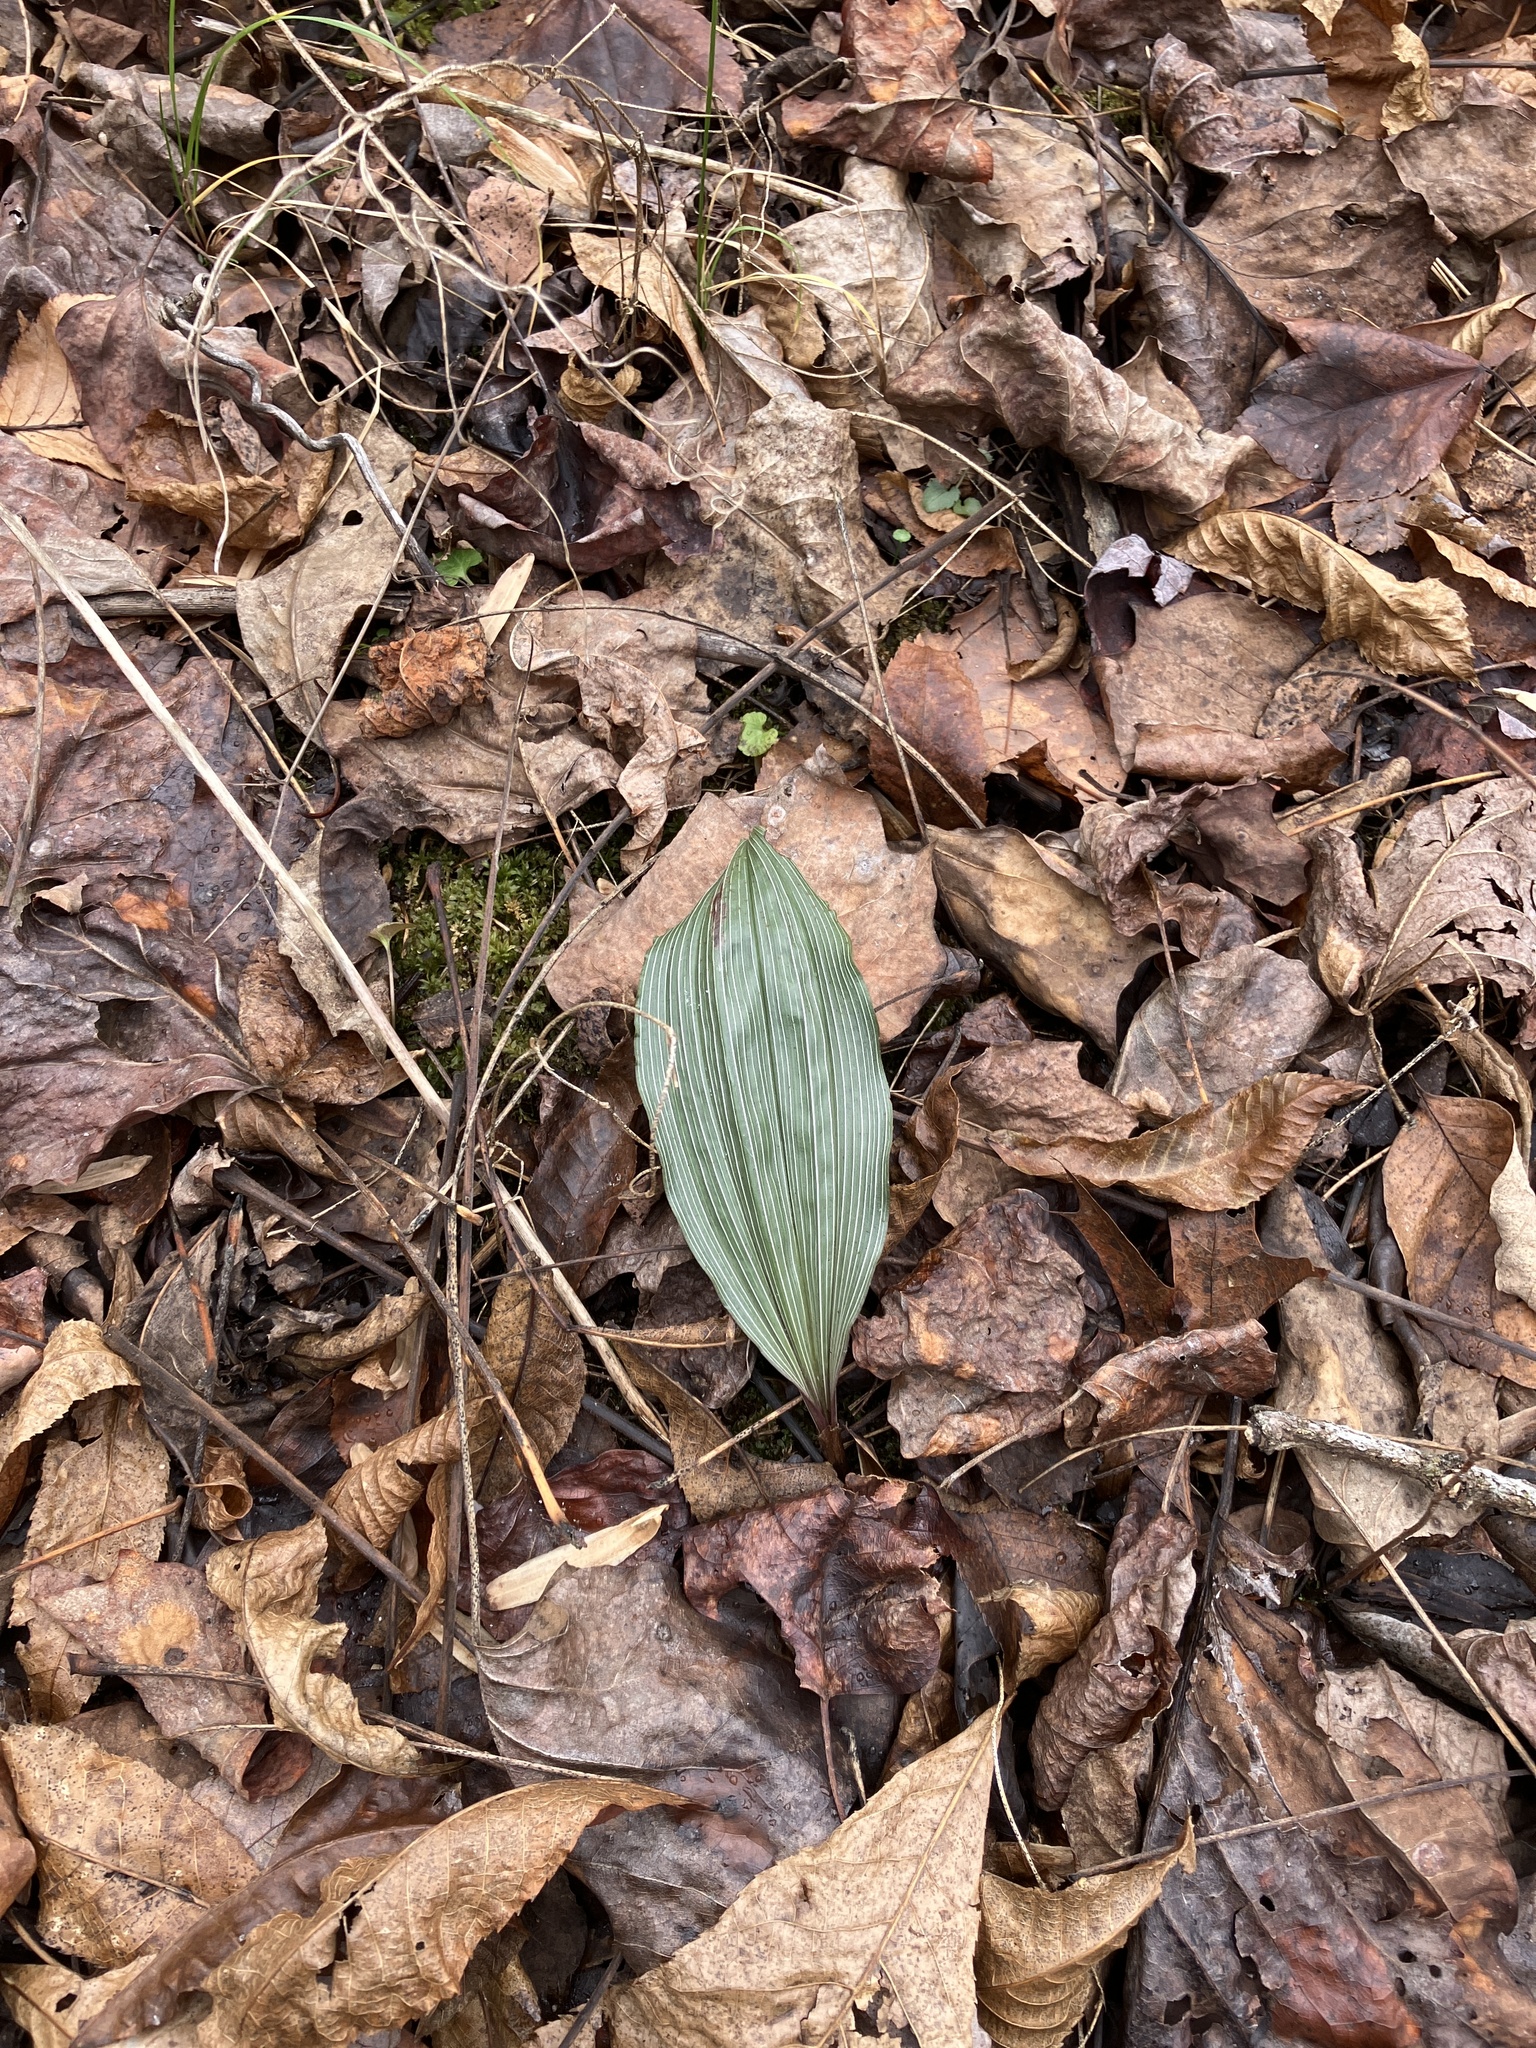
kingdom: Plantae
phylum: Tracheophyta
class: Liliopsida
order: Asparagales
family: Orchidaceae
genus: Aplectrum
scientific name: Aplectrum hyemale
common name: Adam-and-eve
